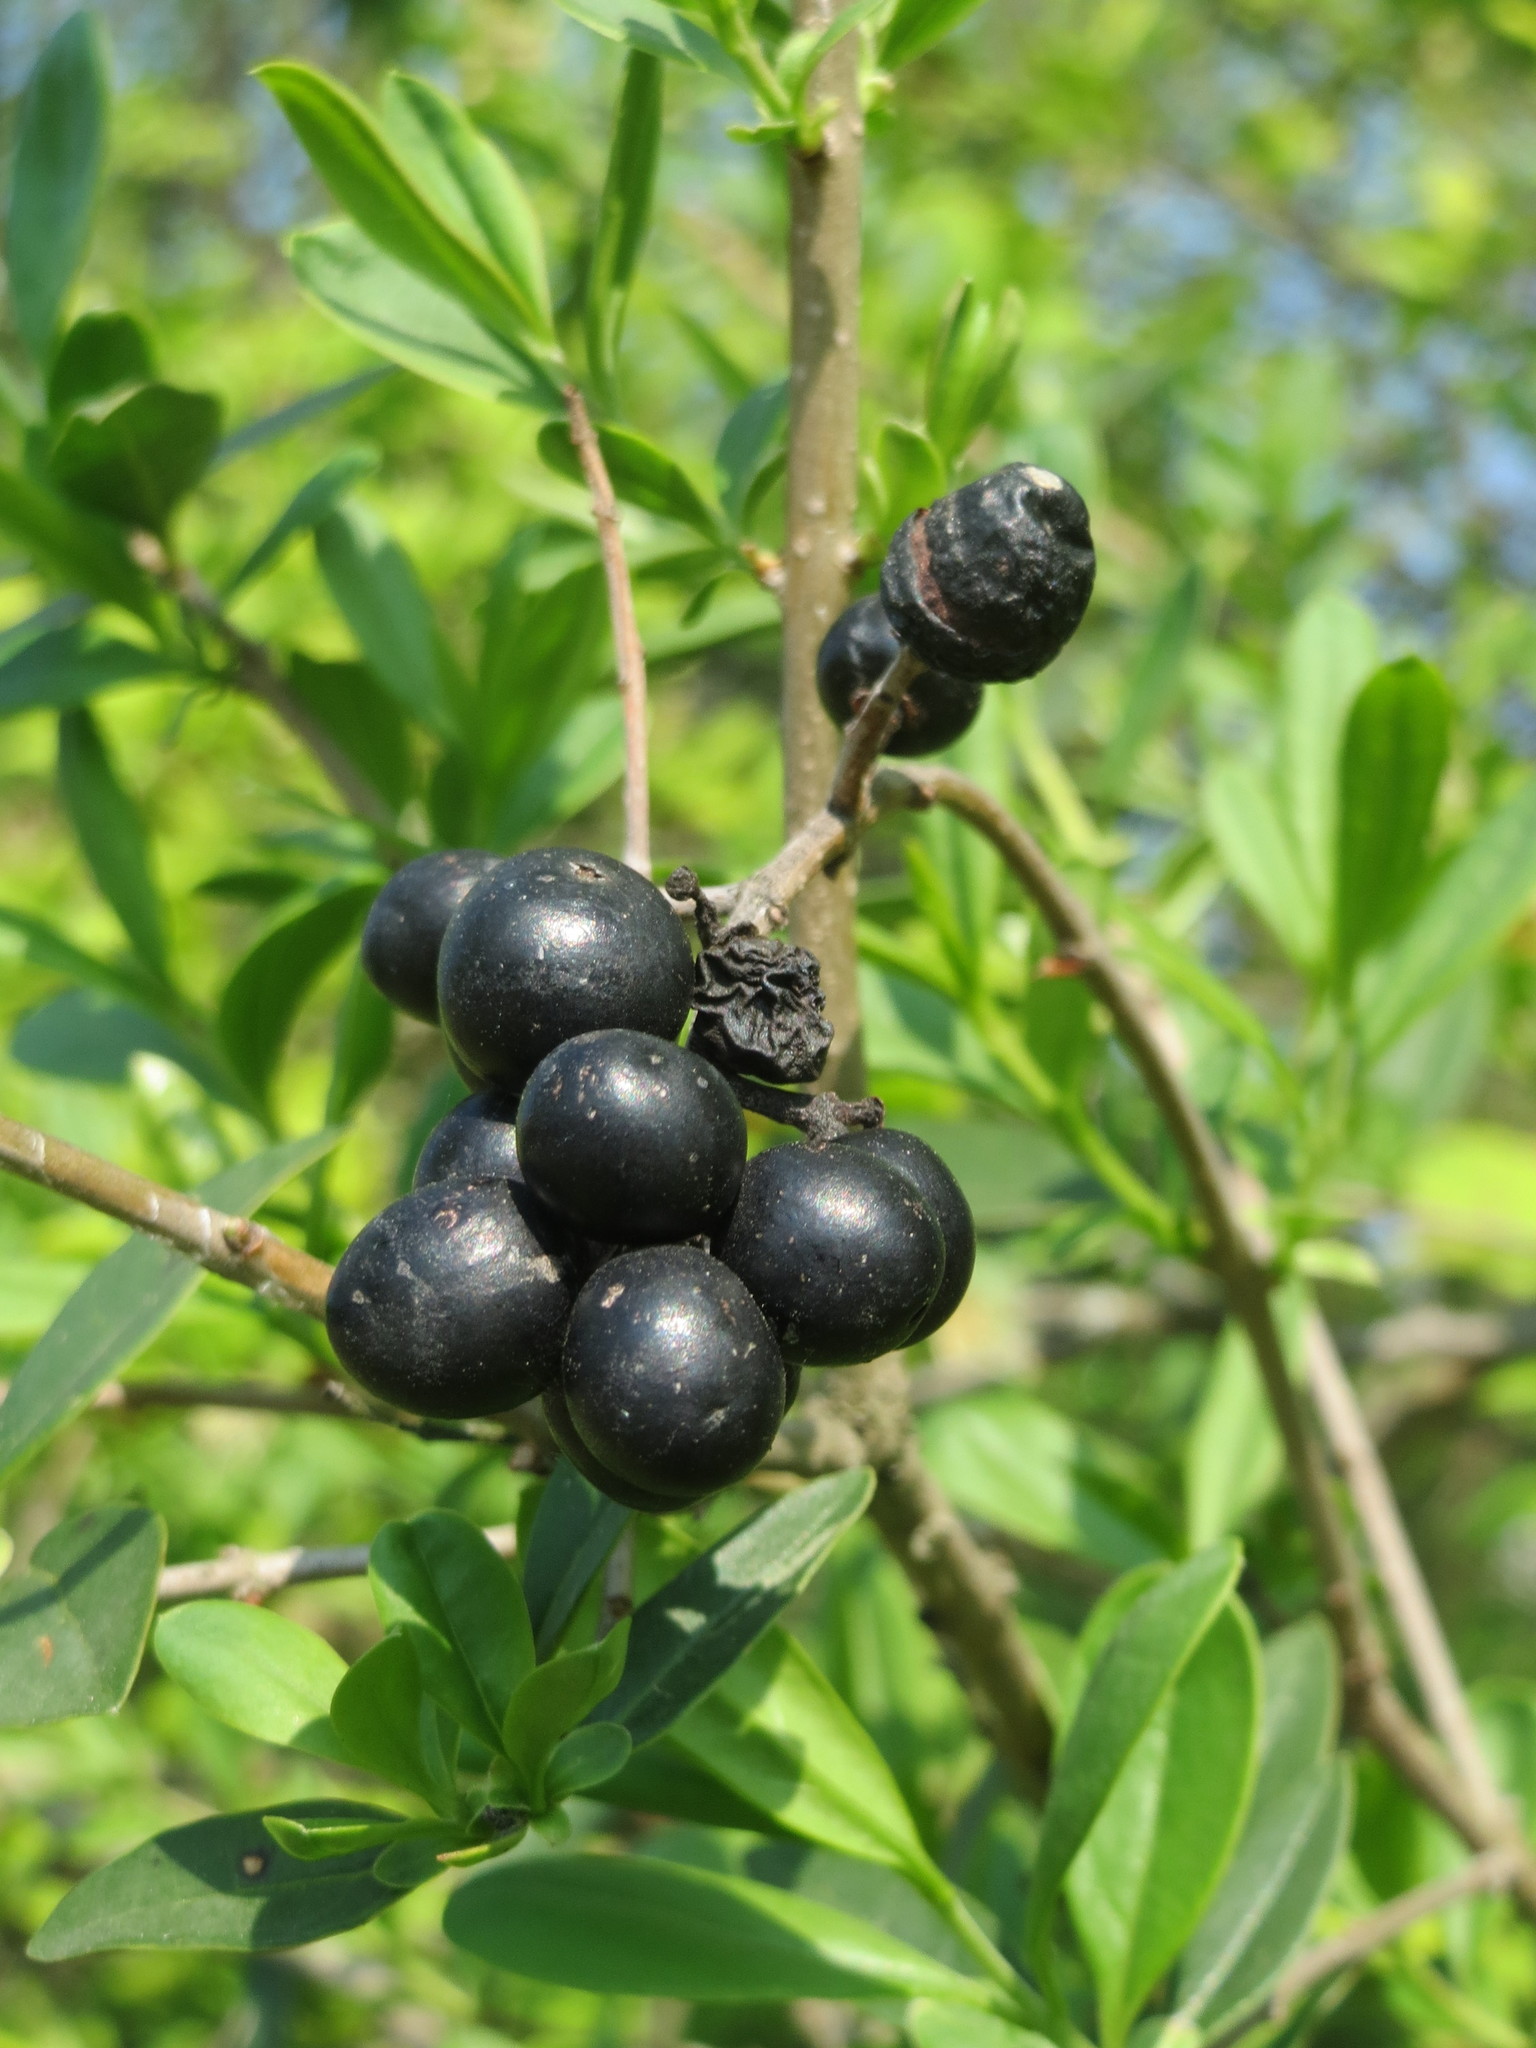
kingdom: Plantae
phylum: Tracheophyta
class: Magnoliopsida
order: Lamiales
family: Oleaceae
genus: Ligustrum
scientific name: Ligustrum vulgare
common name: Wild privet
